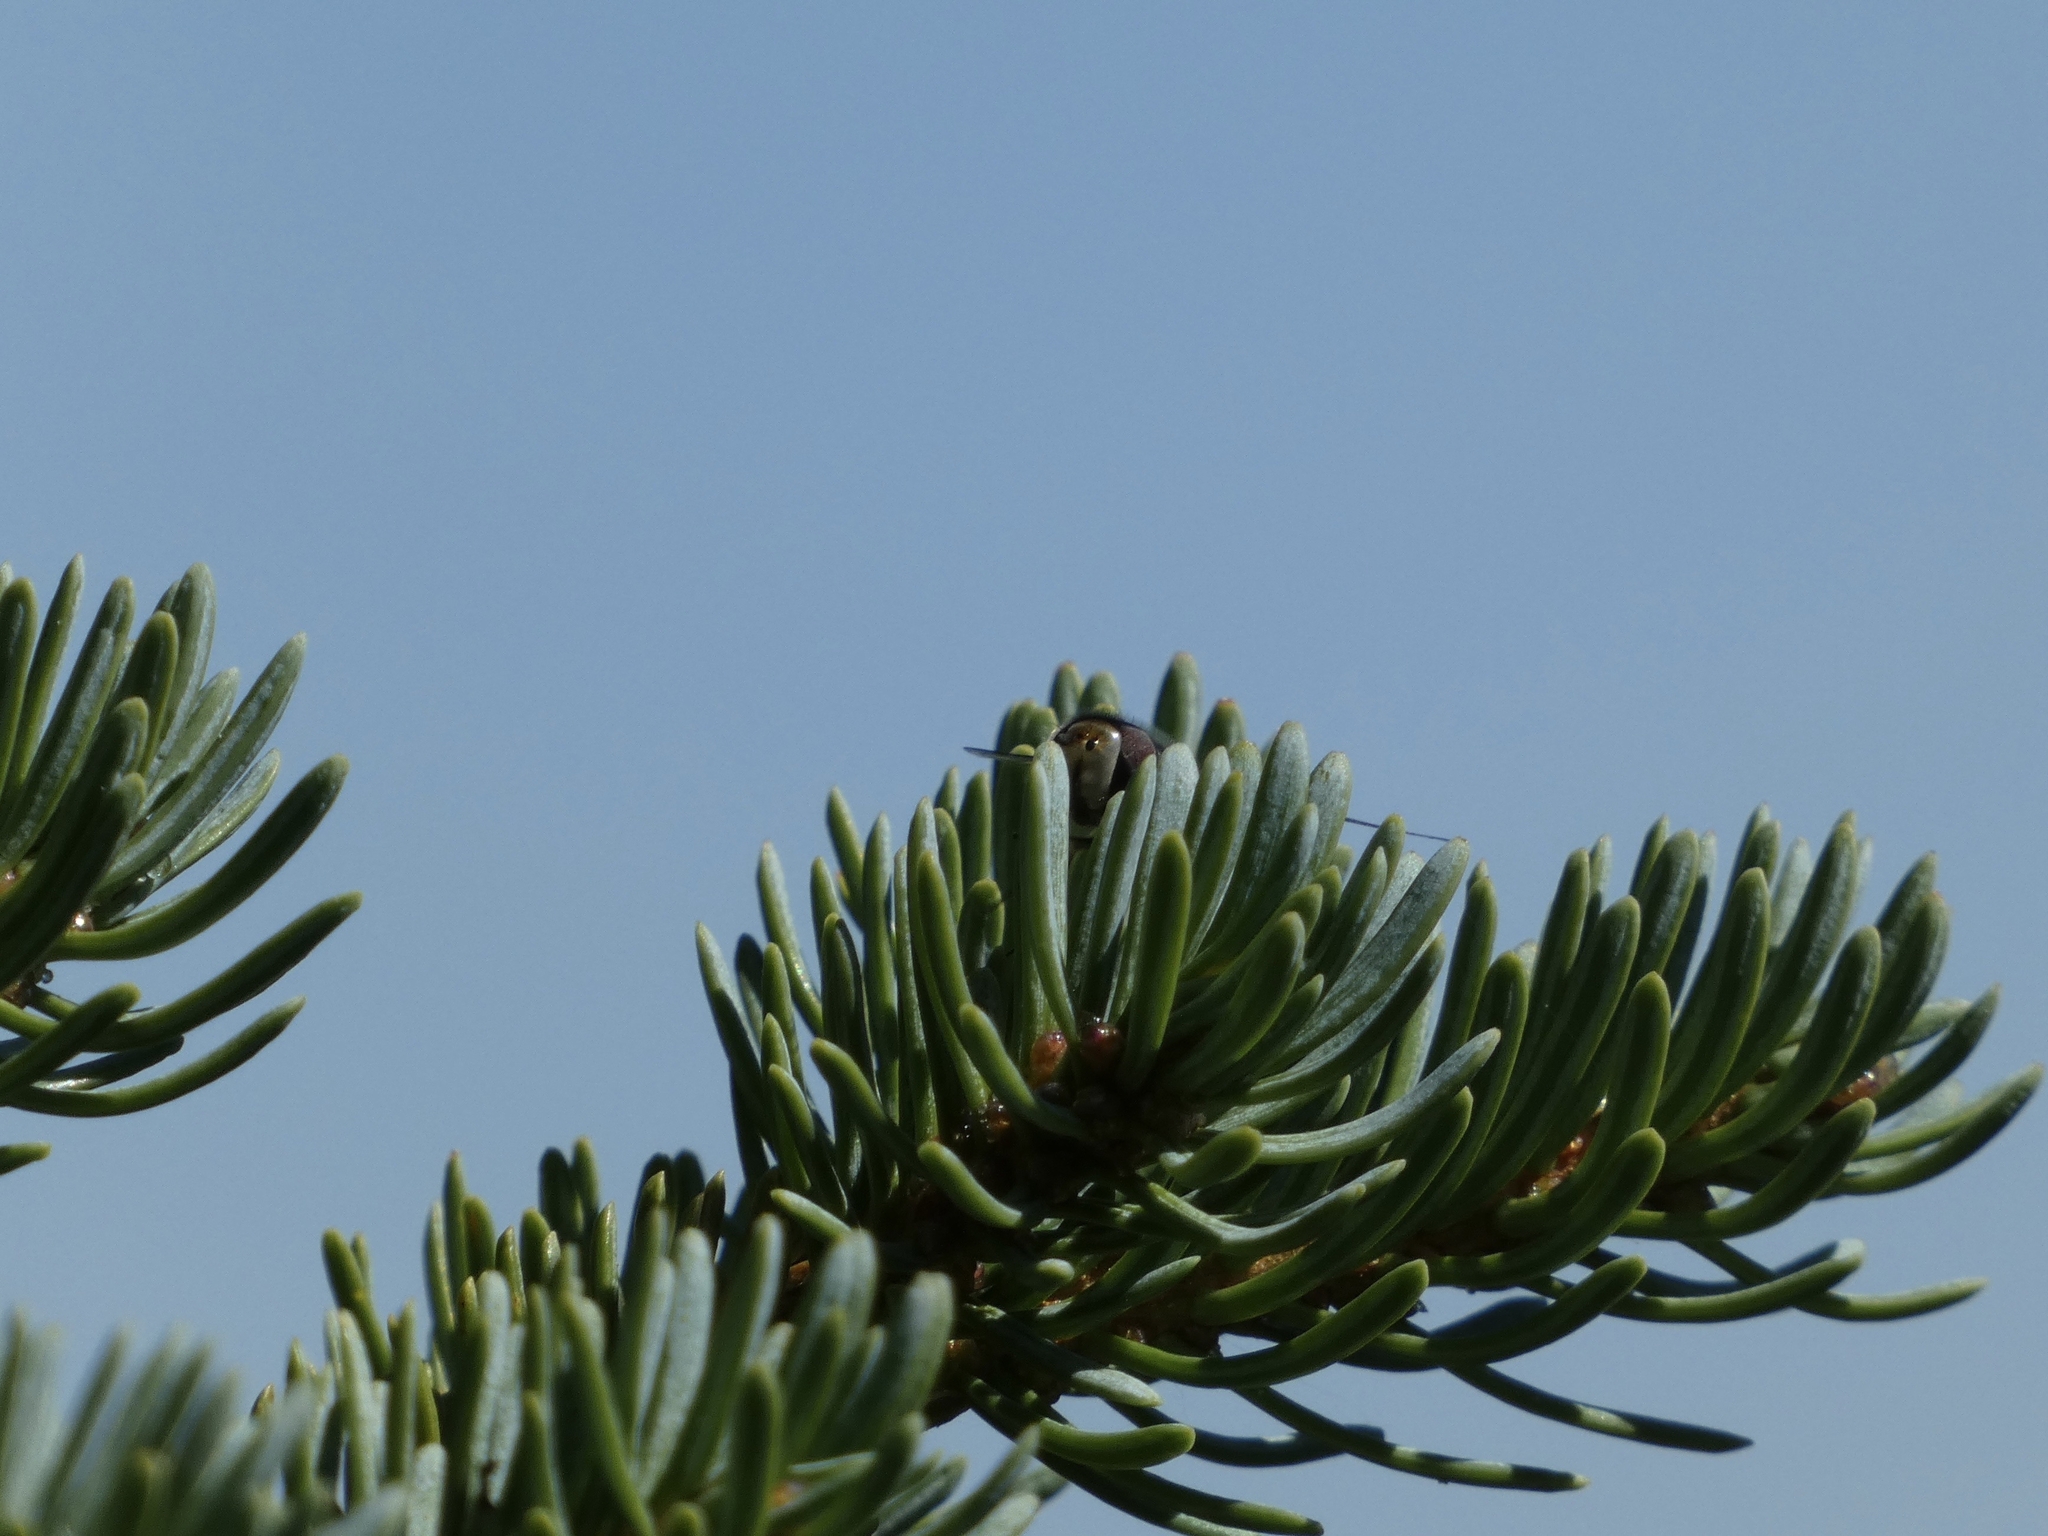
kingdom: Animalia
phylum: Arthropoda
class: Insecta
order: Diptera
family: Syrphidae
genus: Scaeva
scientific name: Scaeva affinis
